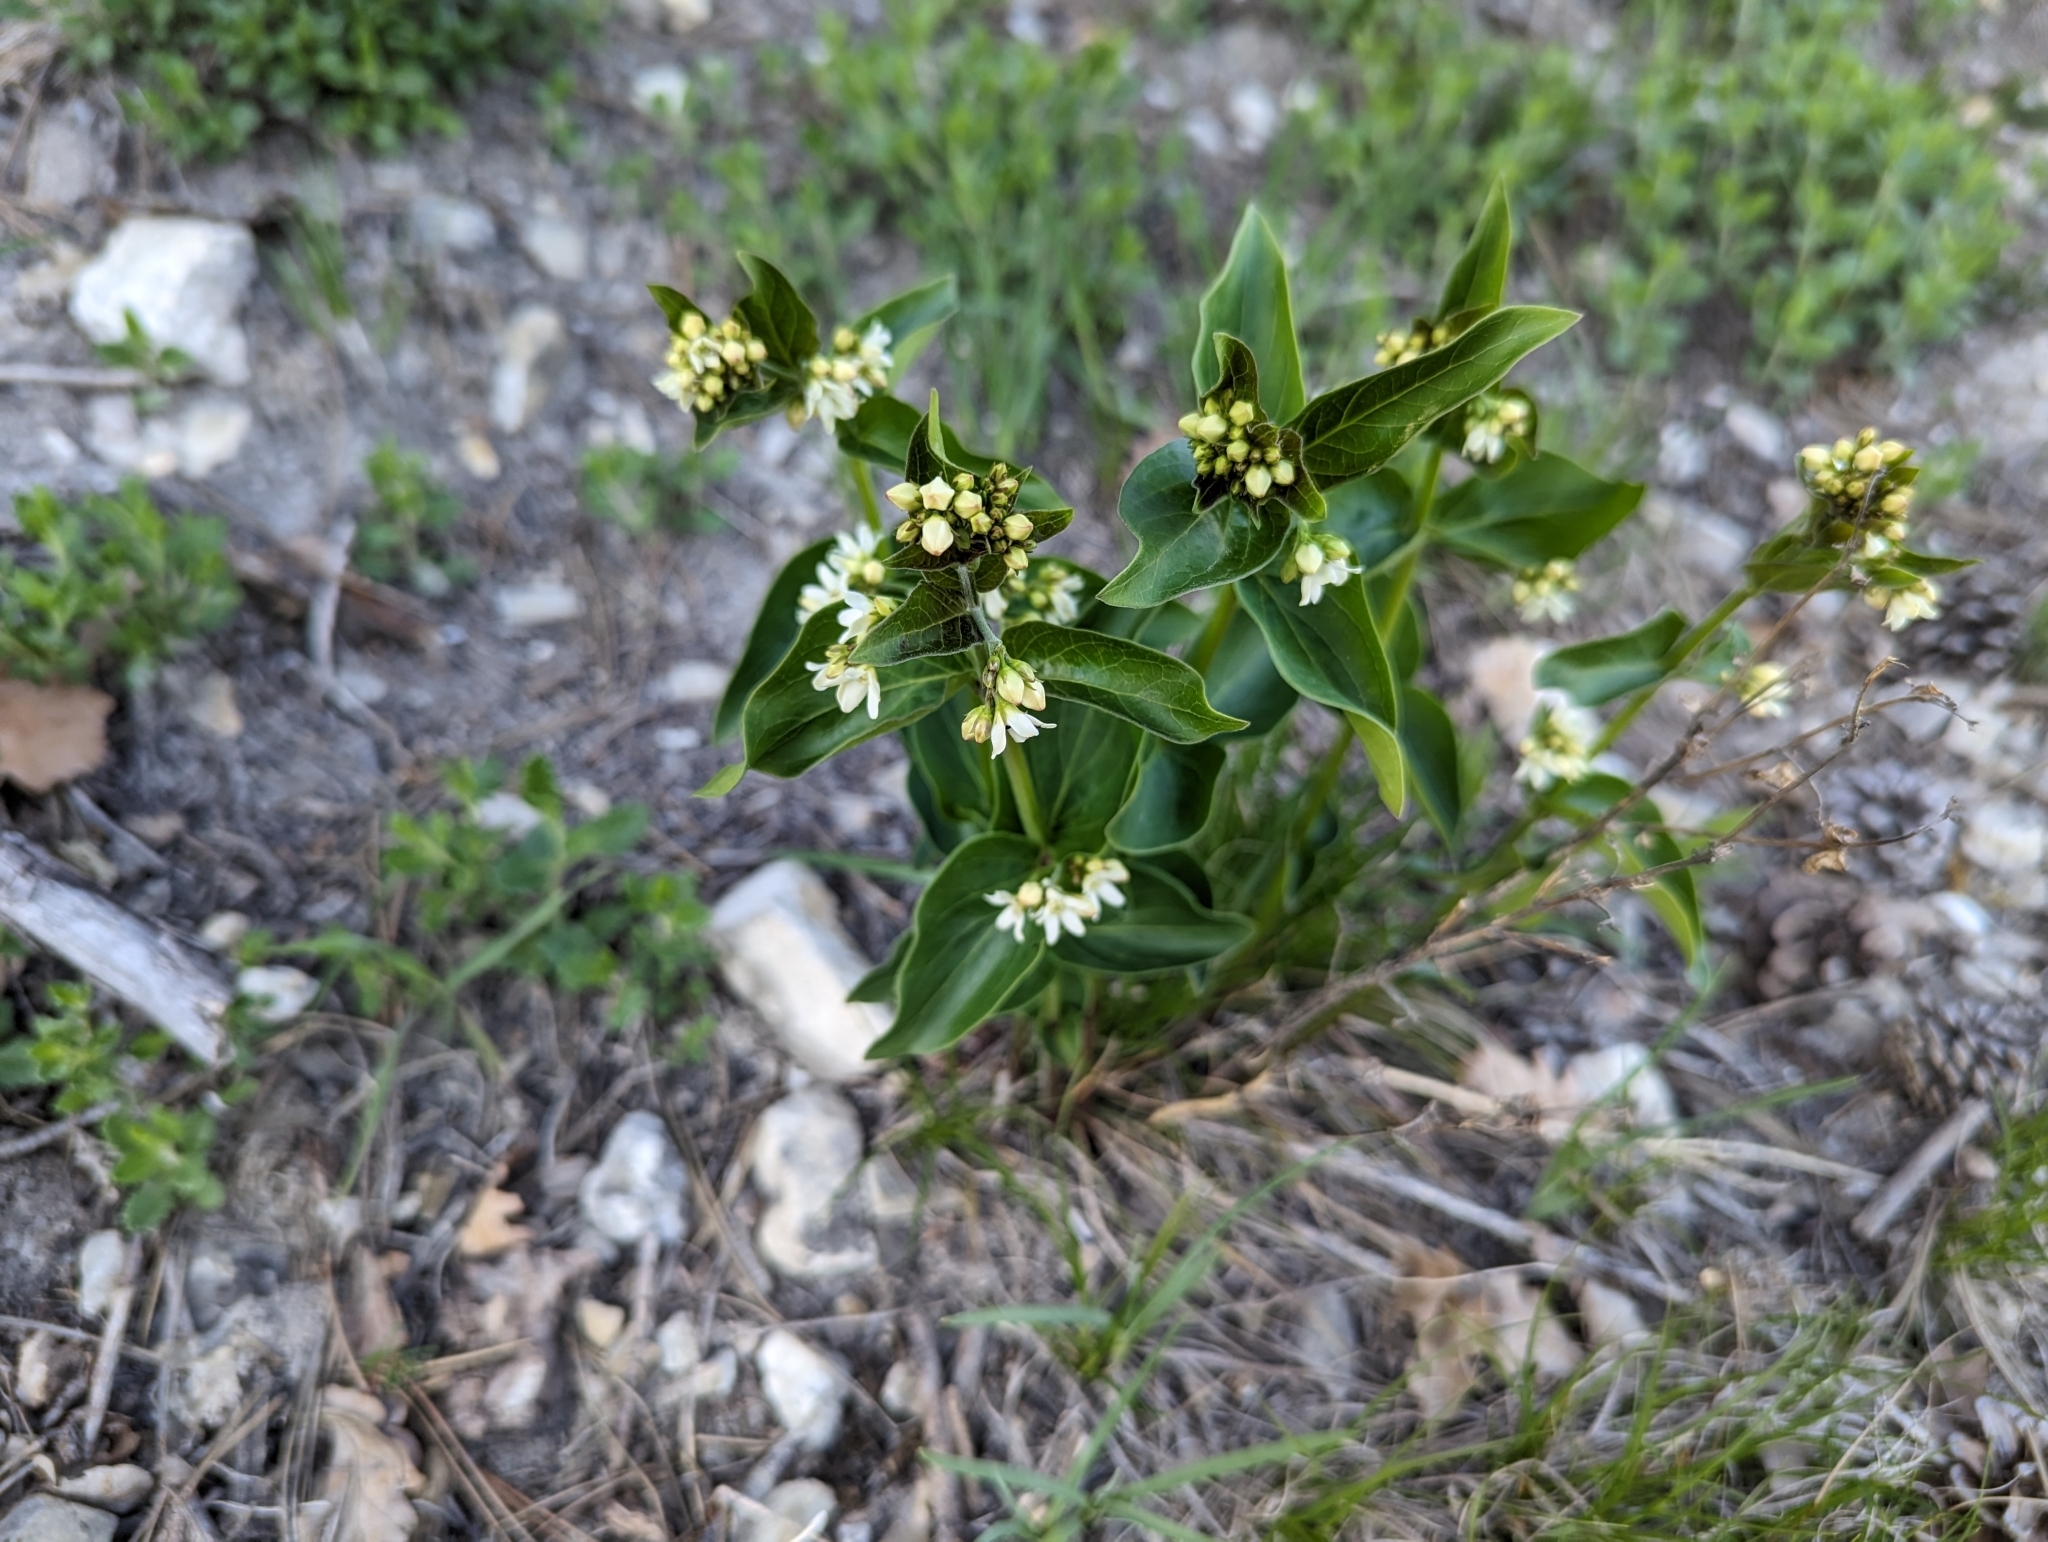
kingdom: Plantae
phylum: Tracheophyta
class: Magnoliopsida
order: Gentianales
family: Apocynaceae
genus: Vincetoxicum
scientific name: Vincetoxicum hirundinaria
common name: White swallowwort
